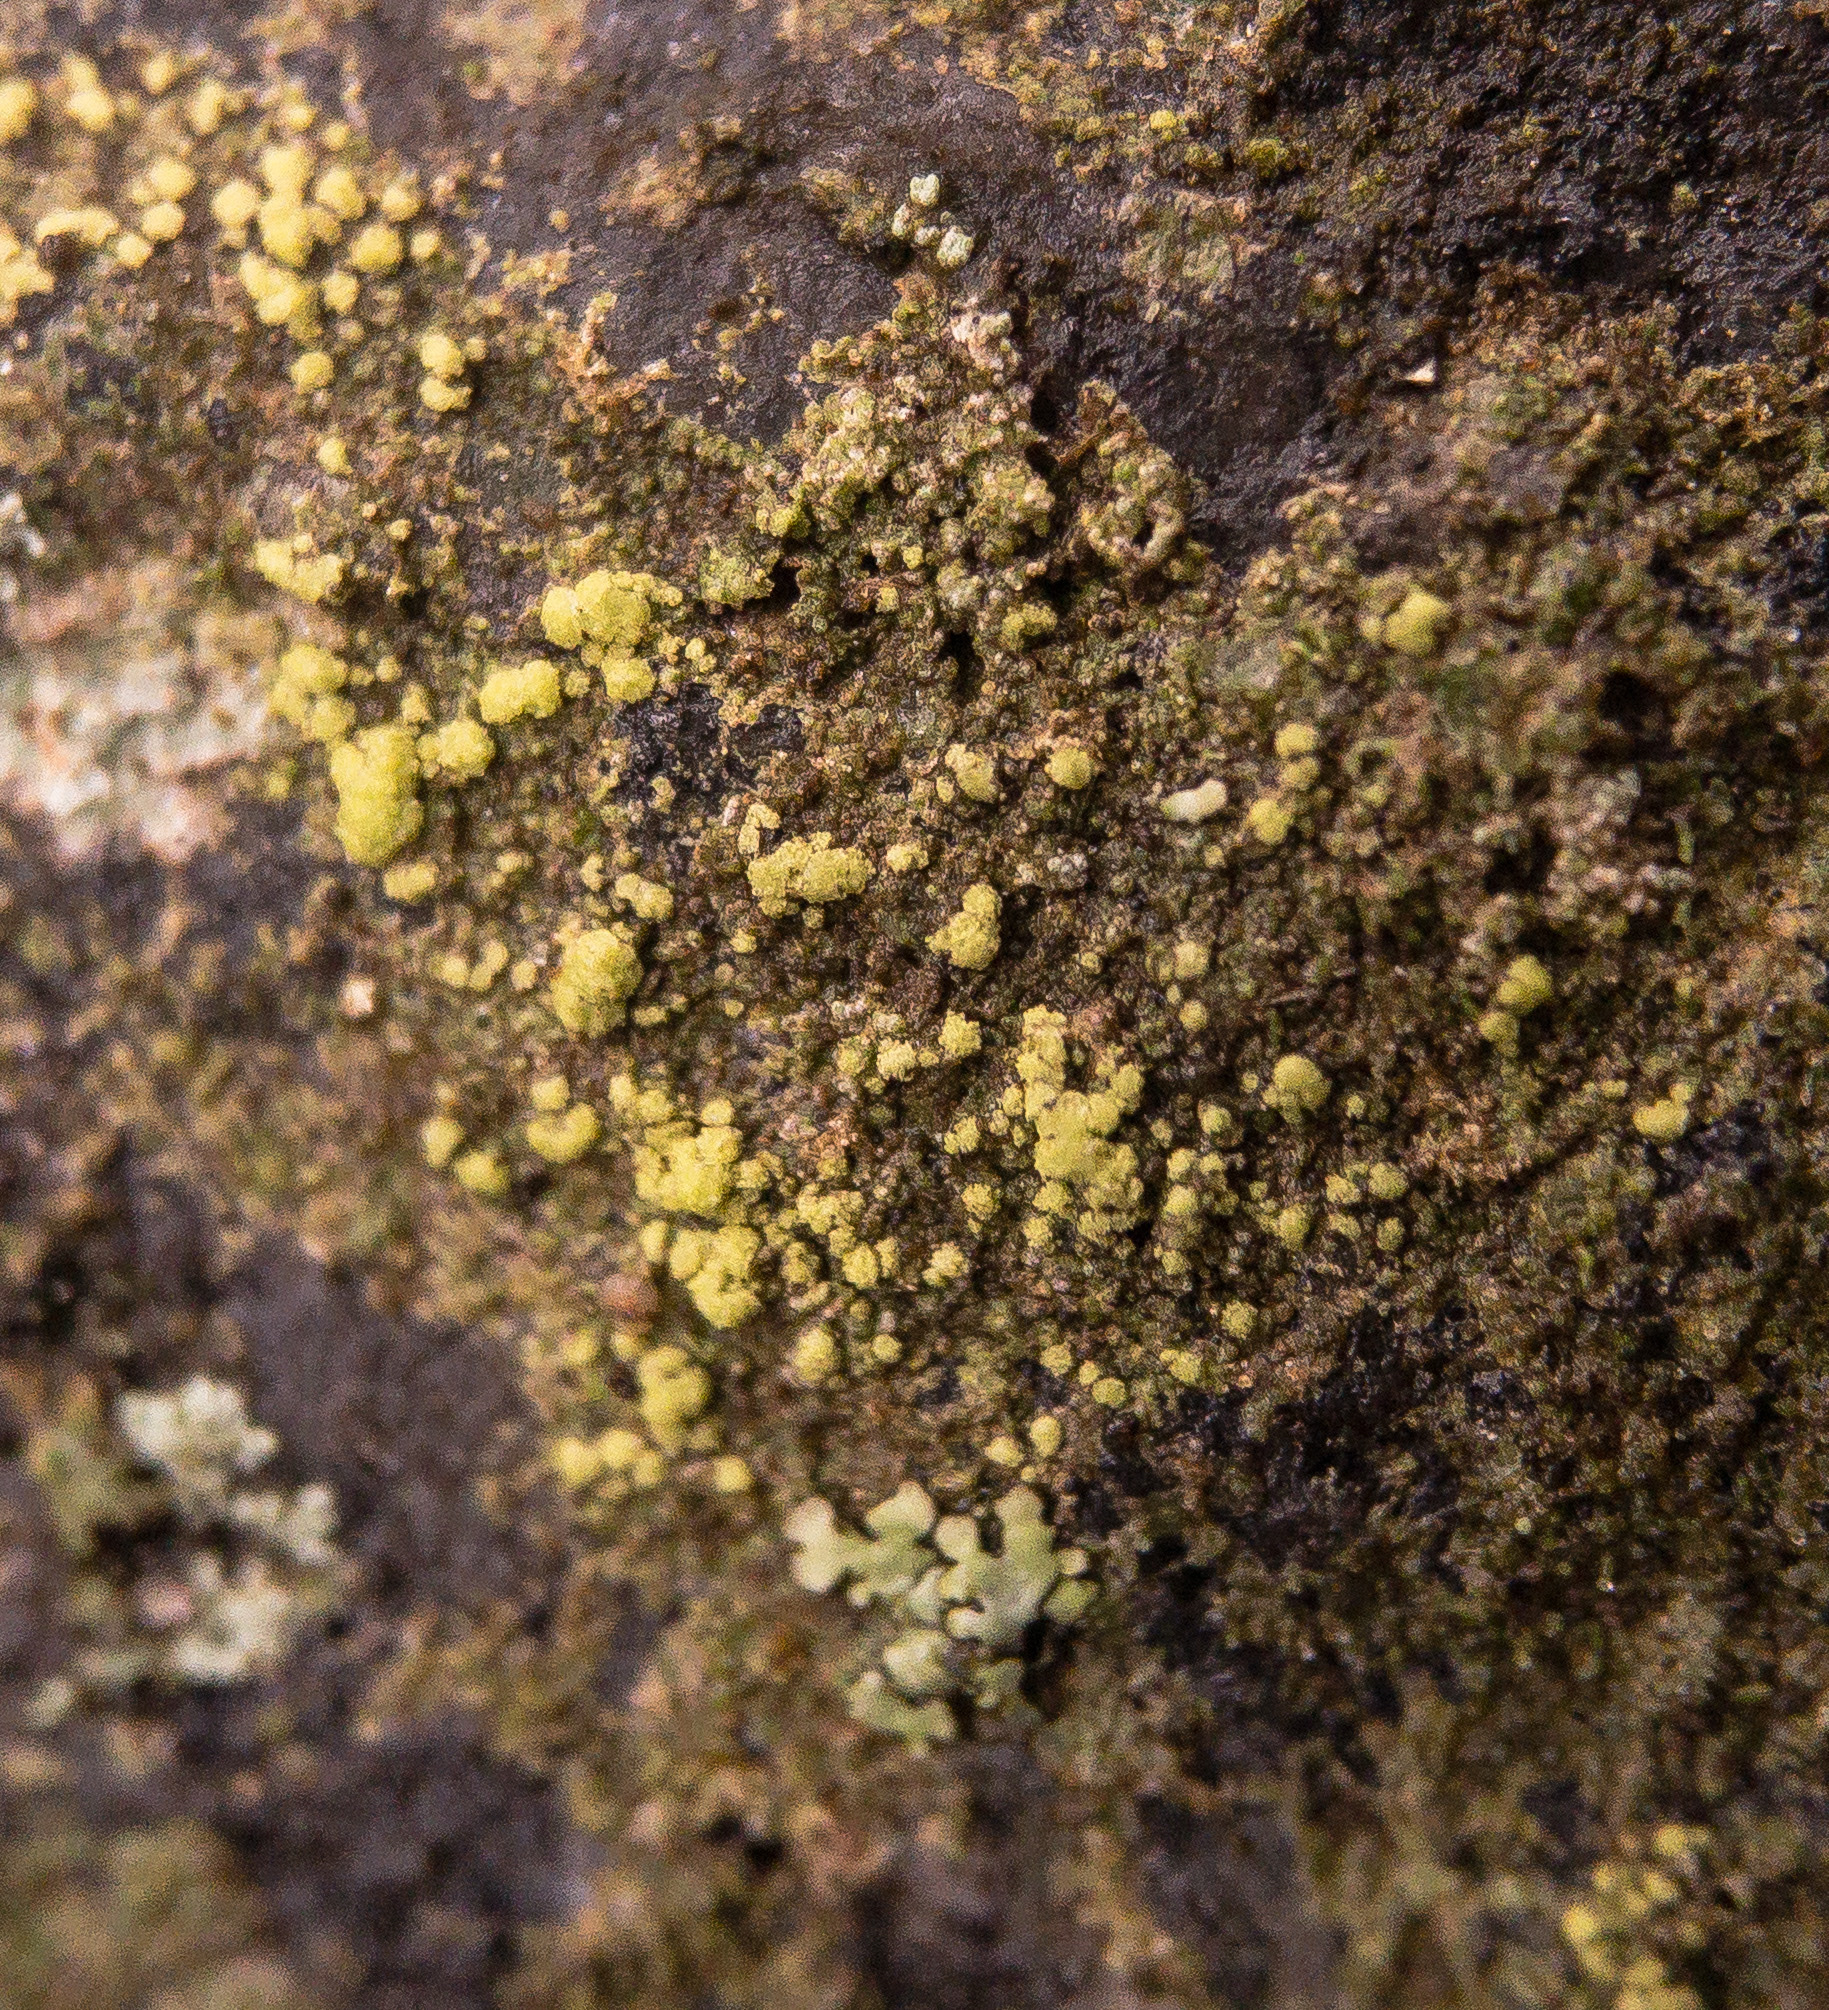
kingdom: Fungi
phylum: Ascomycota
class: Lecanoromycetes
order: Lecanorales
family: Ramalinaceae
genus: Biatora
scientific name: Biatora appalachensis
